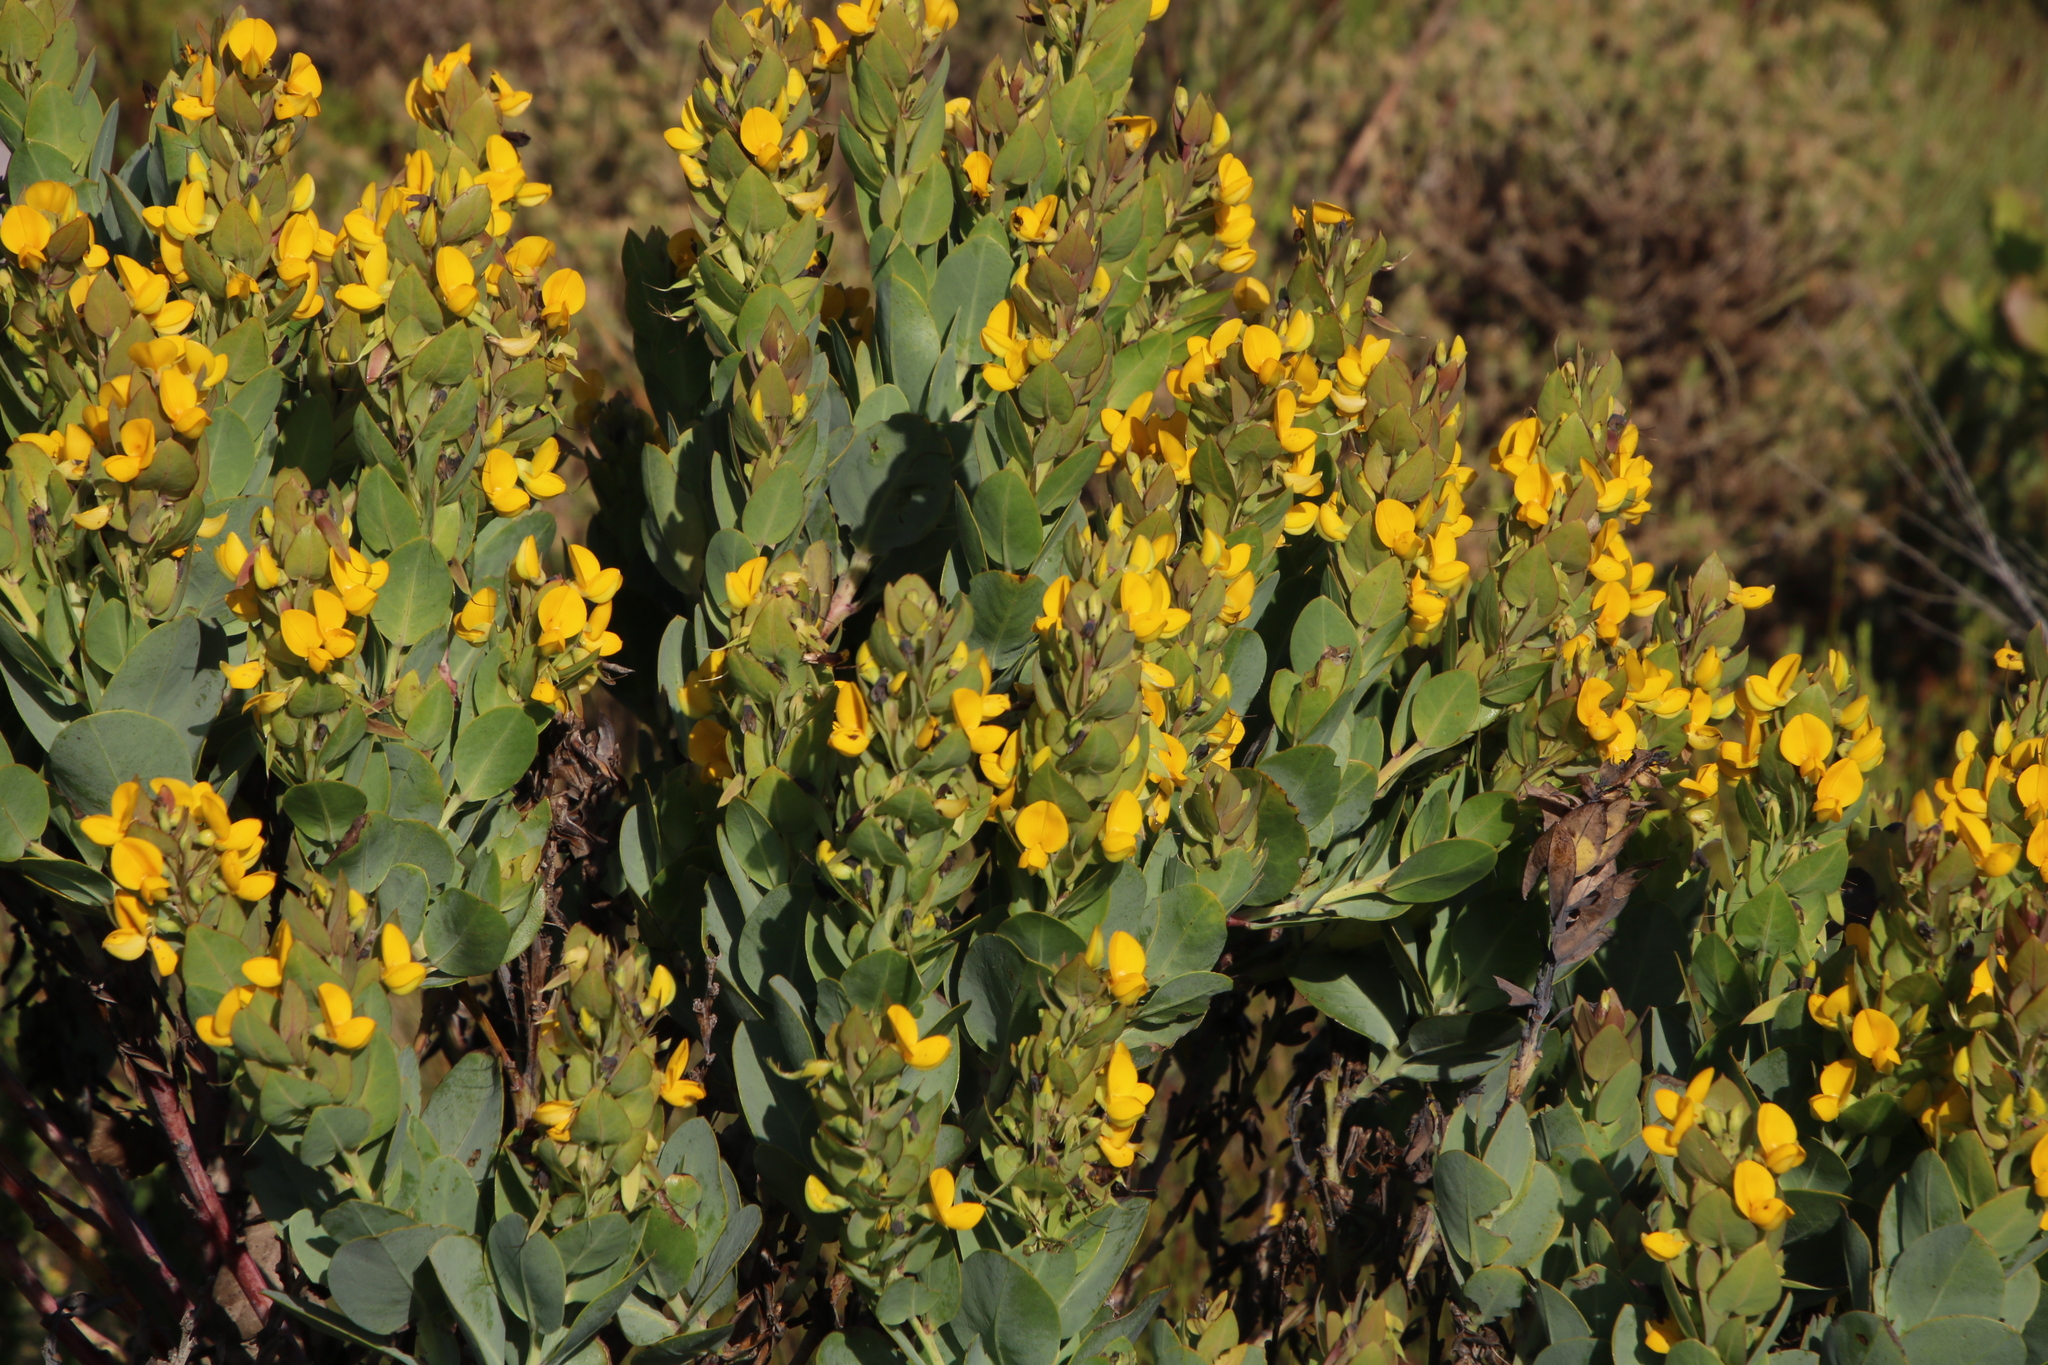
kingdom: Plantae
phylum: Tracheophyta
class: Magnoliopsida
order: Fabales
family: Fabaceae
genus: Rafnia
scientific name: Rafnia triflora
